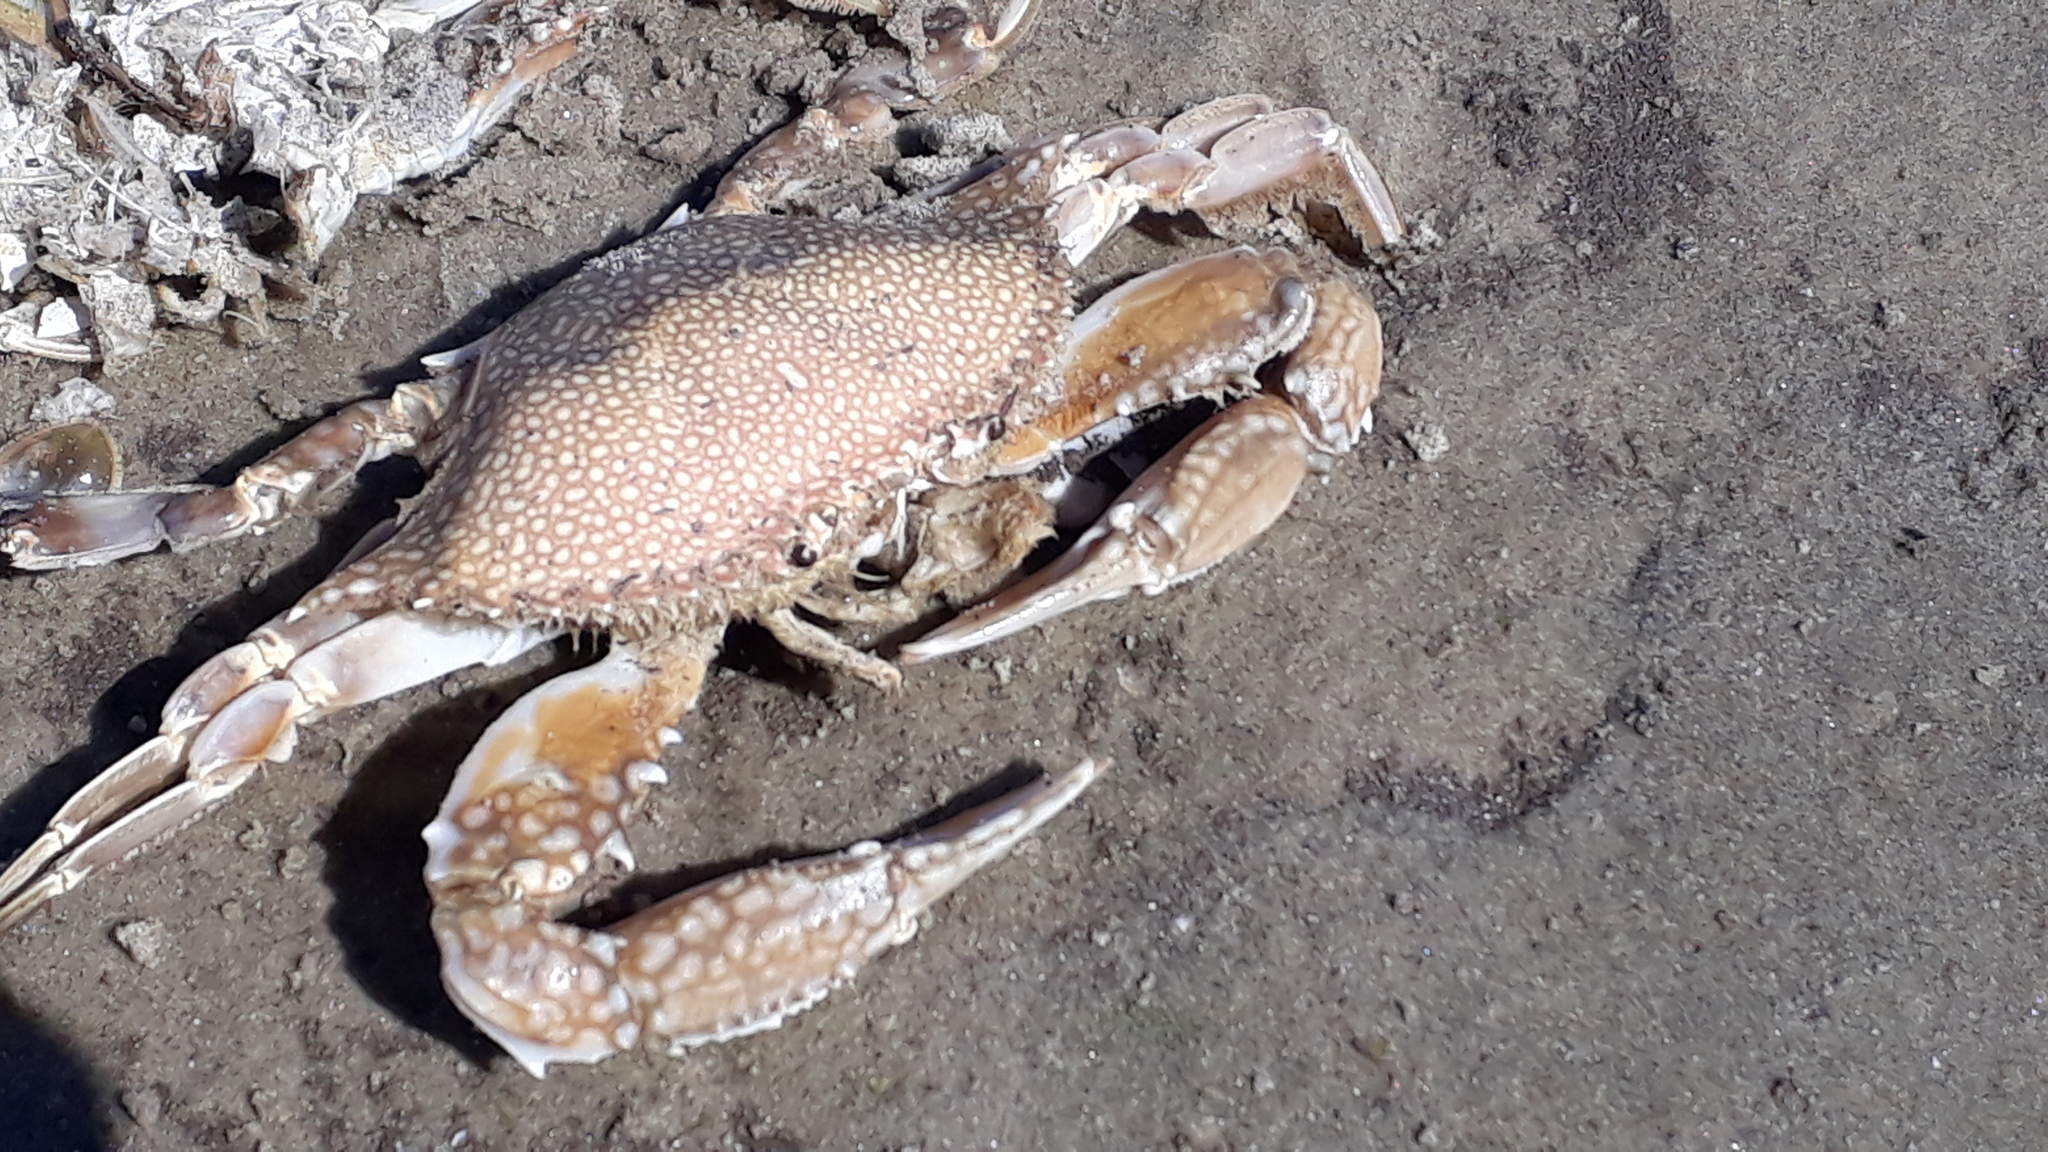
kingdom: Animalia
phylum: Arthropoda
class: Malacostraca
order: Decapoda
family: Portunidae
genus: Arenaeus
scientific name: Arenaeus cribrarius
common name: Speckled crab
